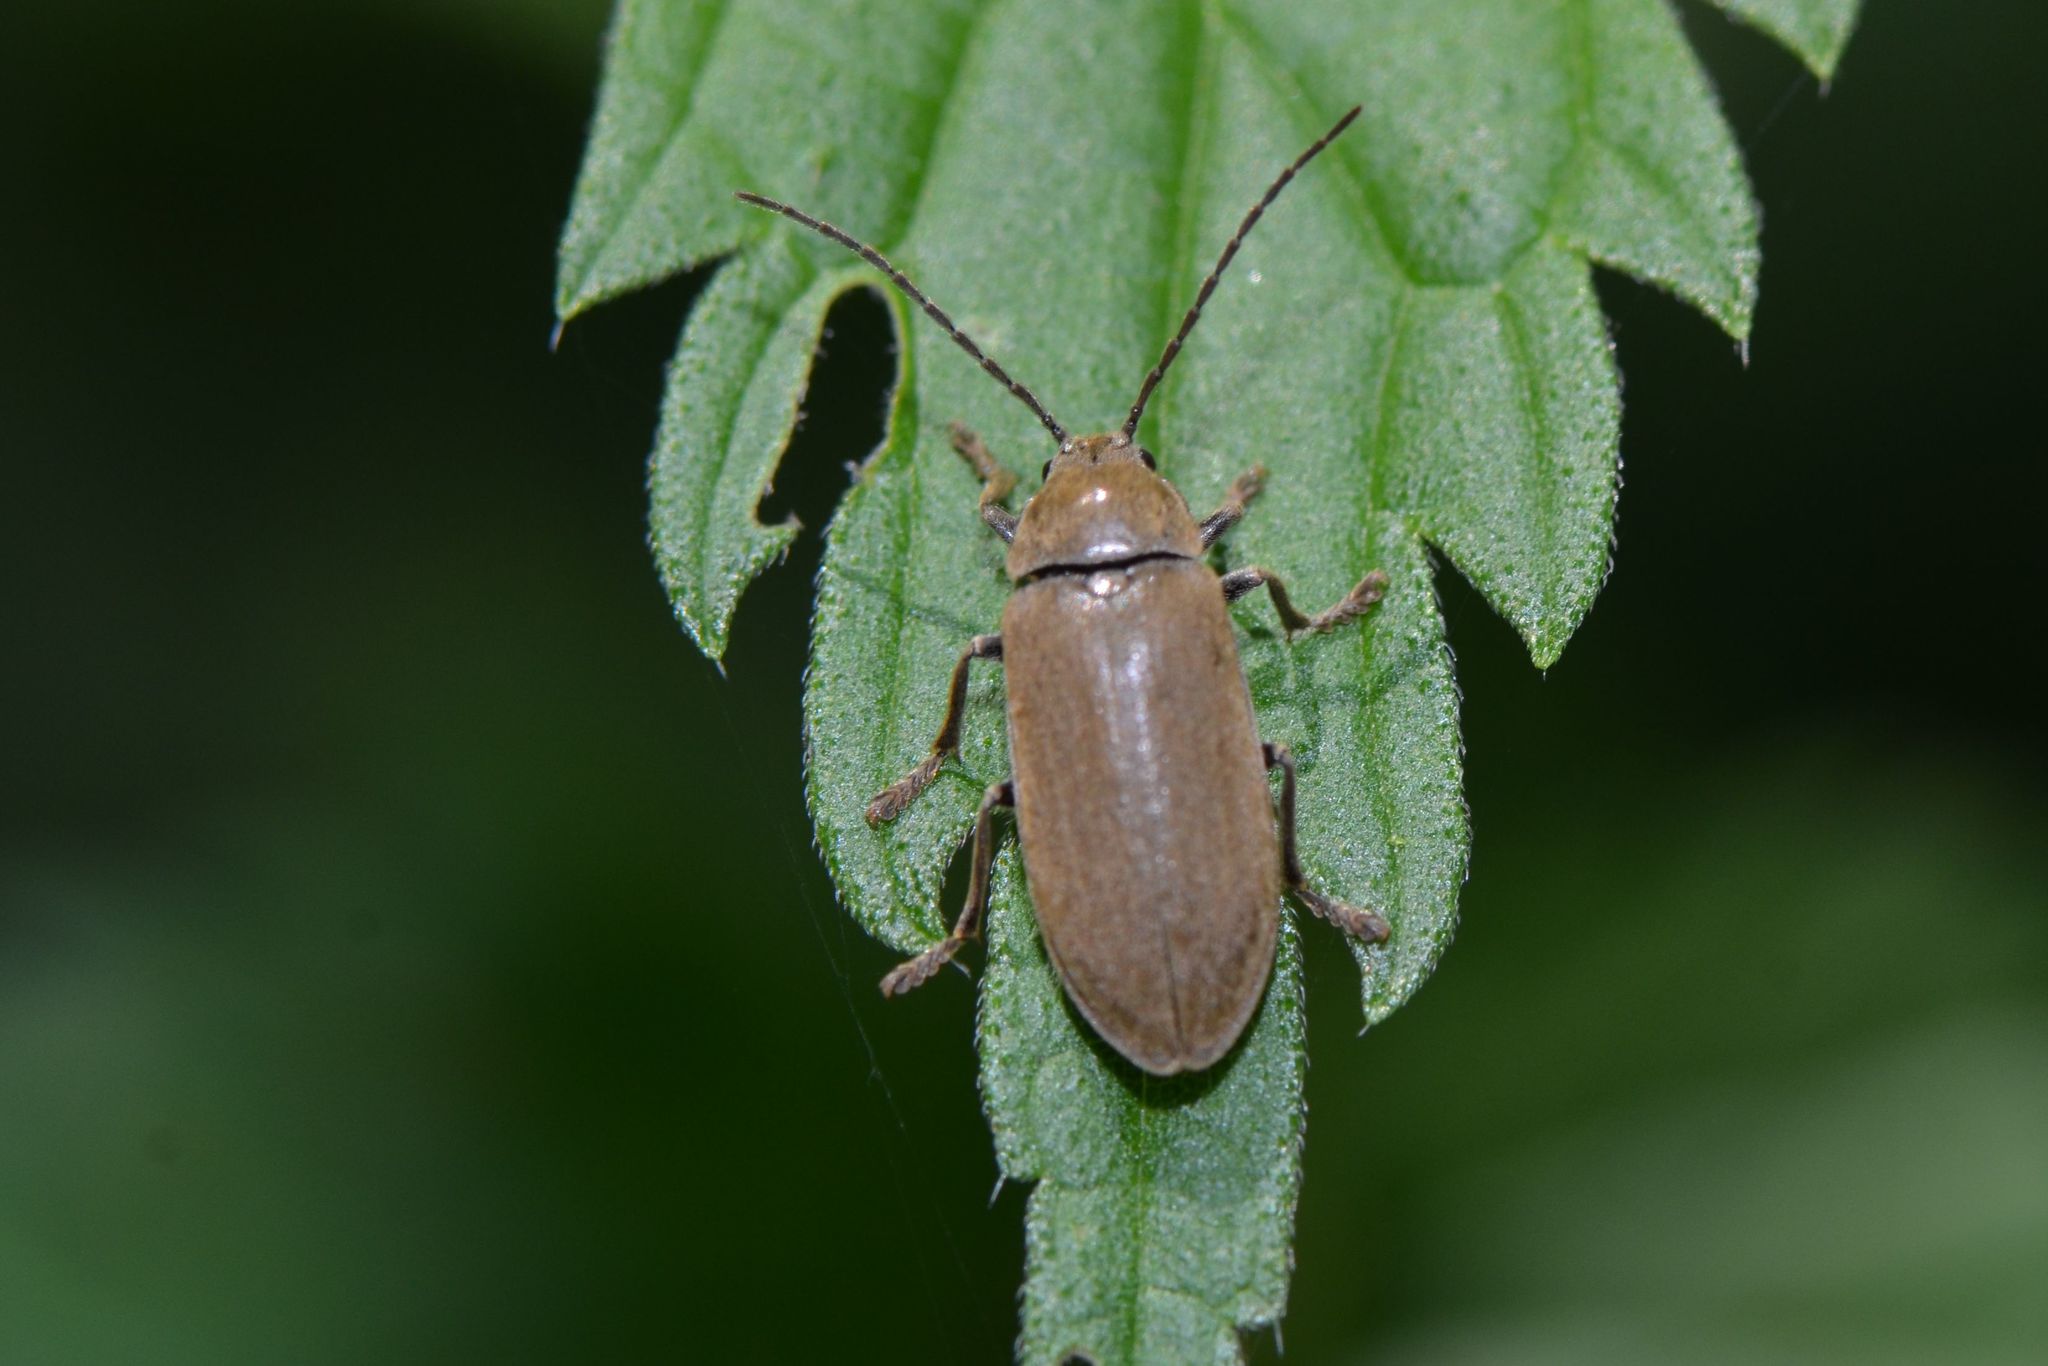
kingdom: Animalia
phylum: Arthropoda
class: Insecta
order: Coleoptera
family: Dascillidae
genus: Dascillus
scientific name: Dascillus cervinus
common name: Orchid beetle
